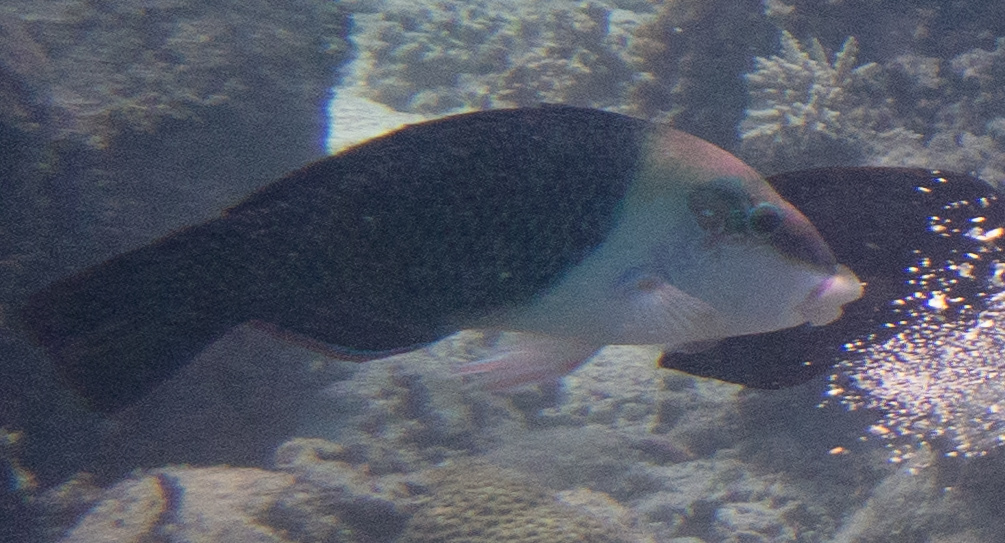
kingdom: Animalia
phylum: Chordata
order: Perciformes
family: Labridae
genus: Hemigymnus
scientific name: Hemigymnus melapterus
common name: Blackeye thicklip
